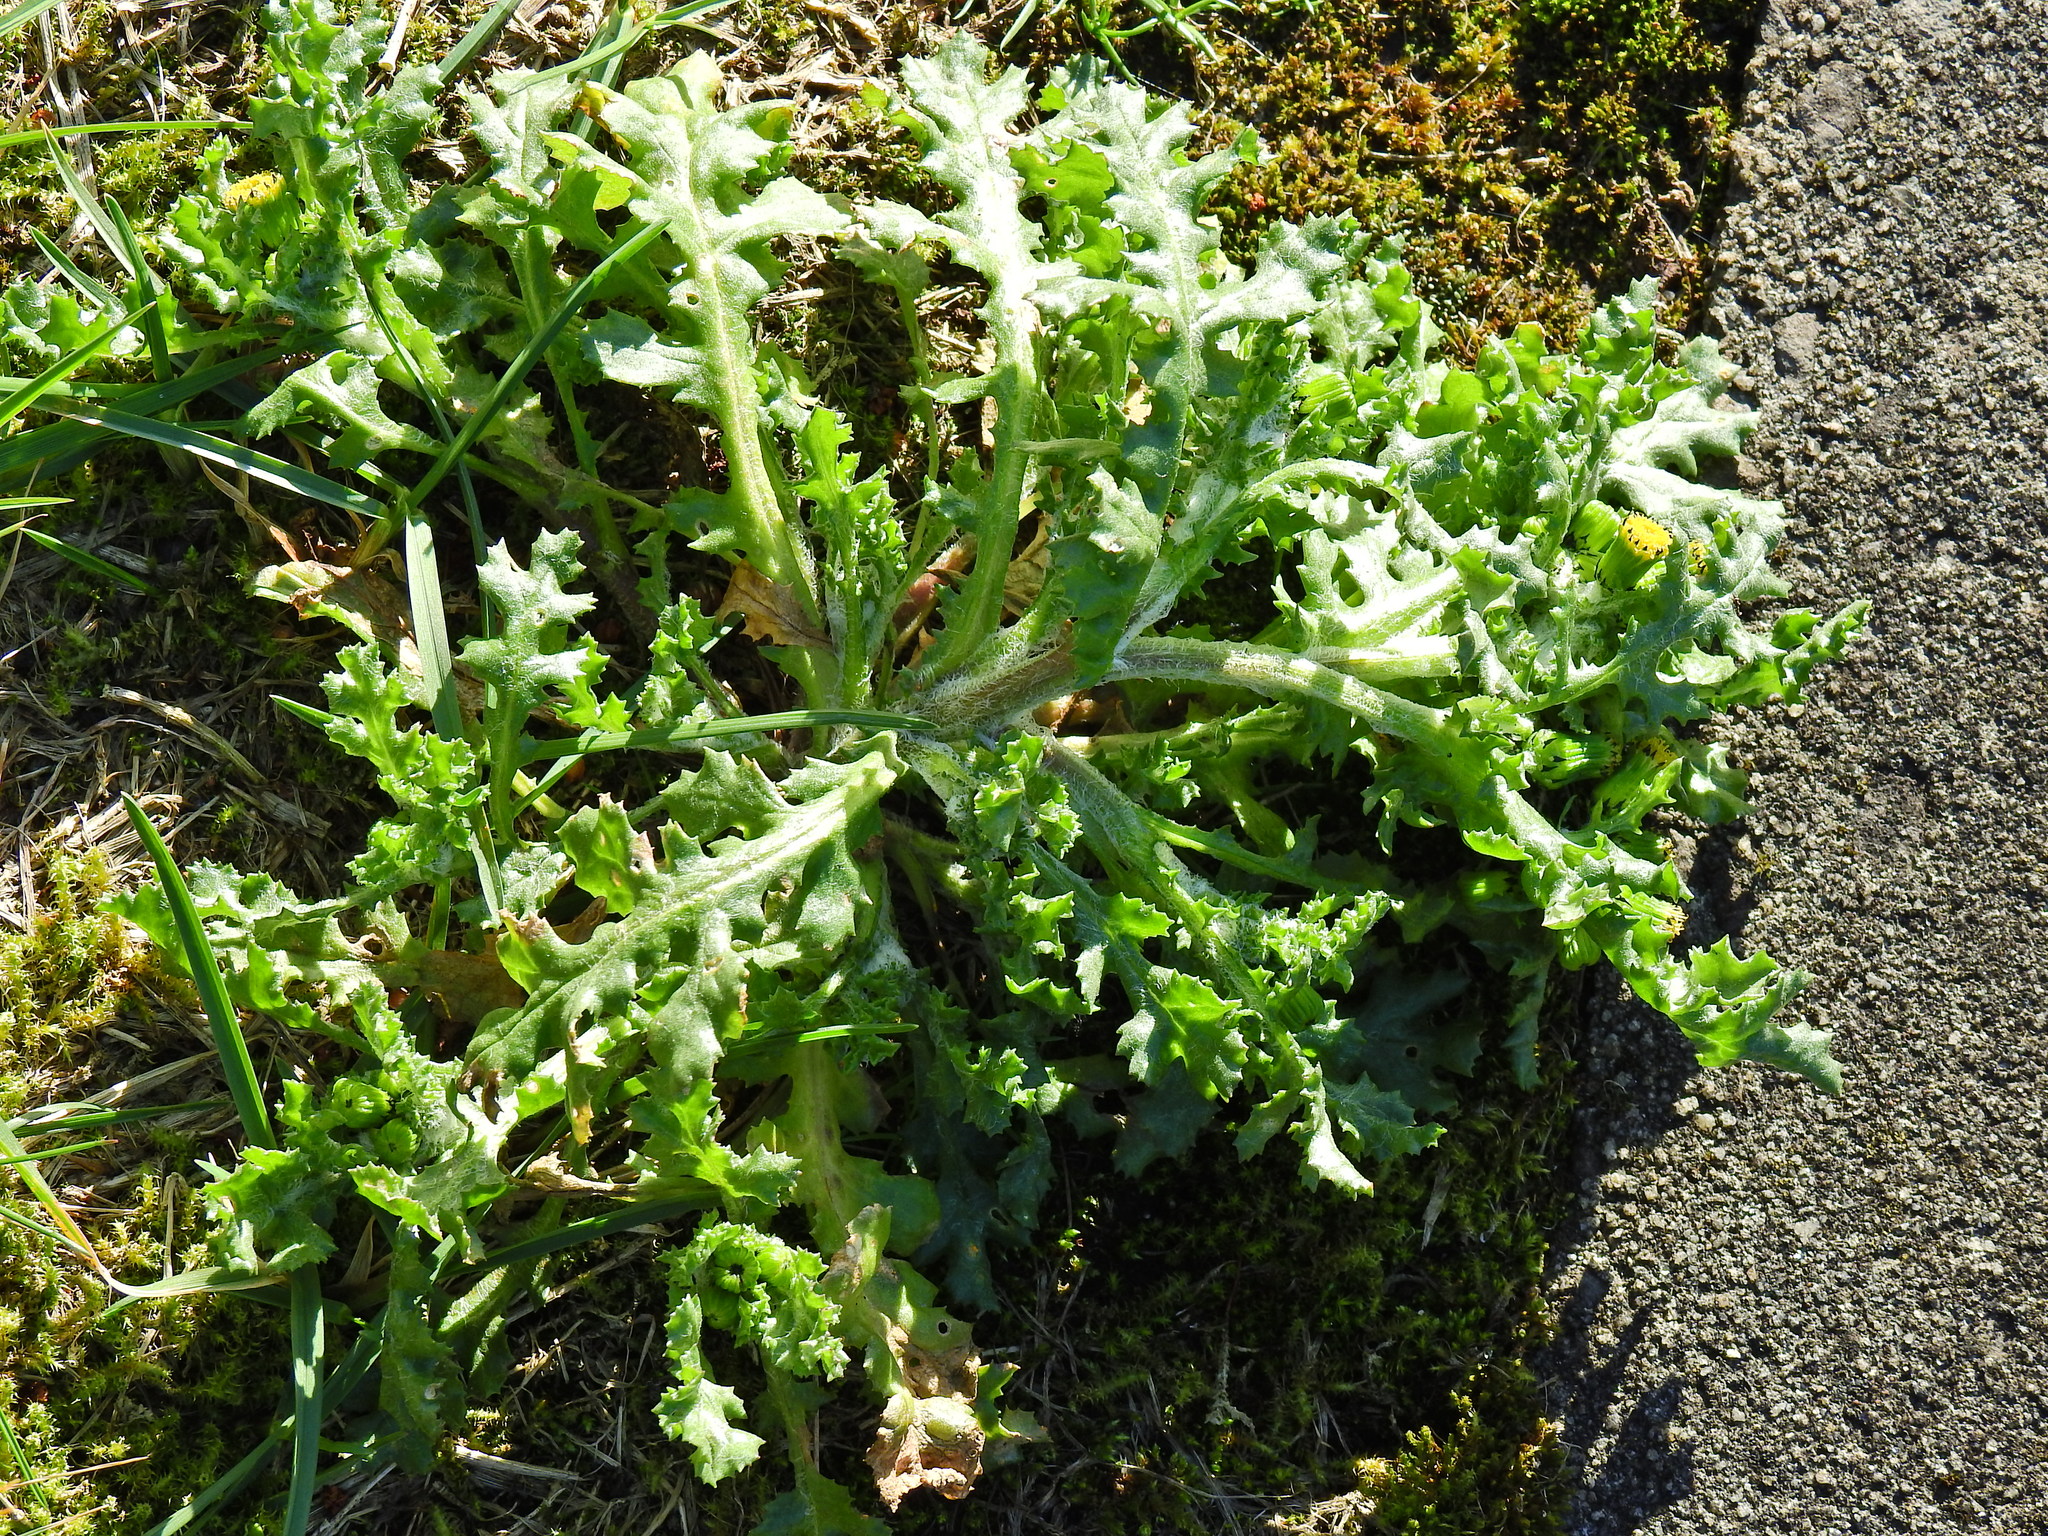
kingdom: Plantae
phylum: Tracheophyta
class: Magnoliopsida
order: Asterales
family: Asteraceae
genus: Senecio
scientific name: Senecio vulgaris
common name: Old-man-in-the-spring
